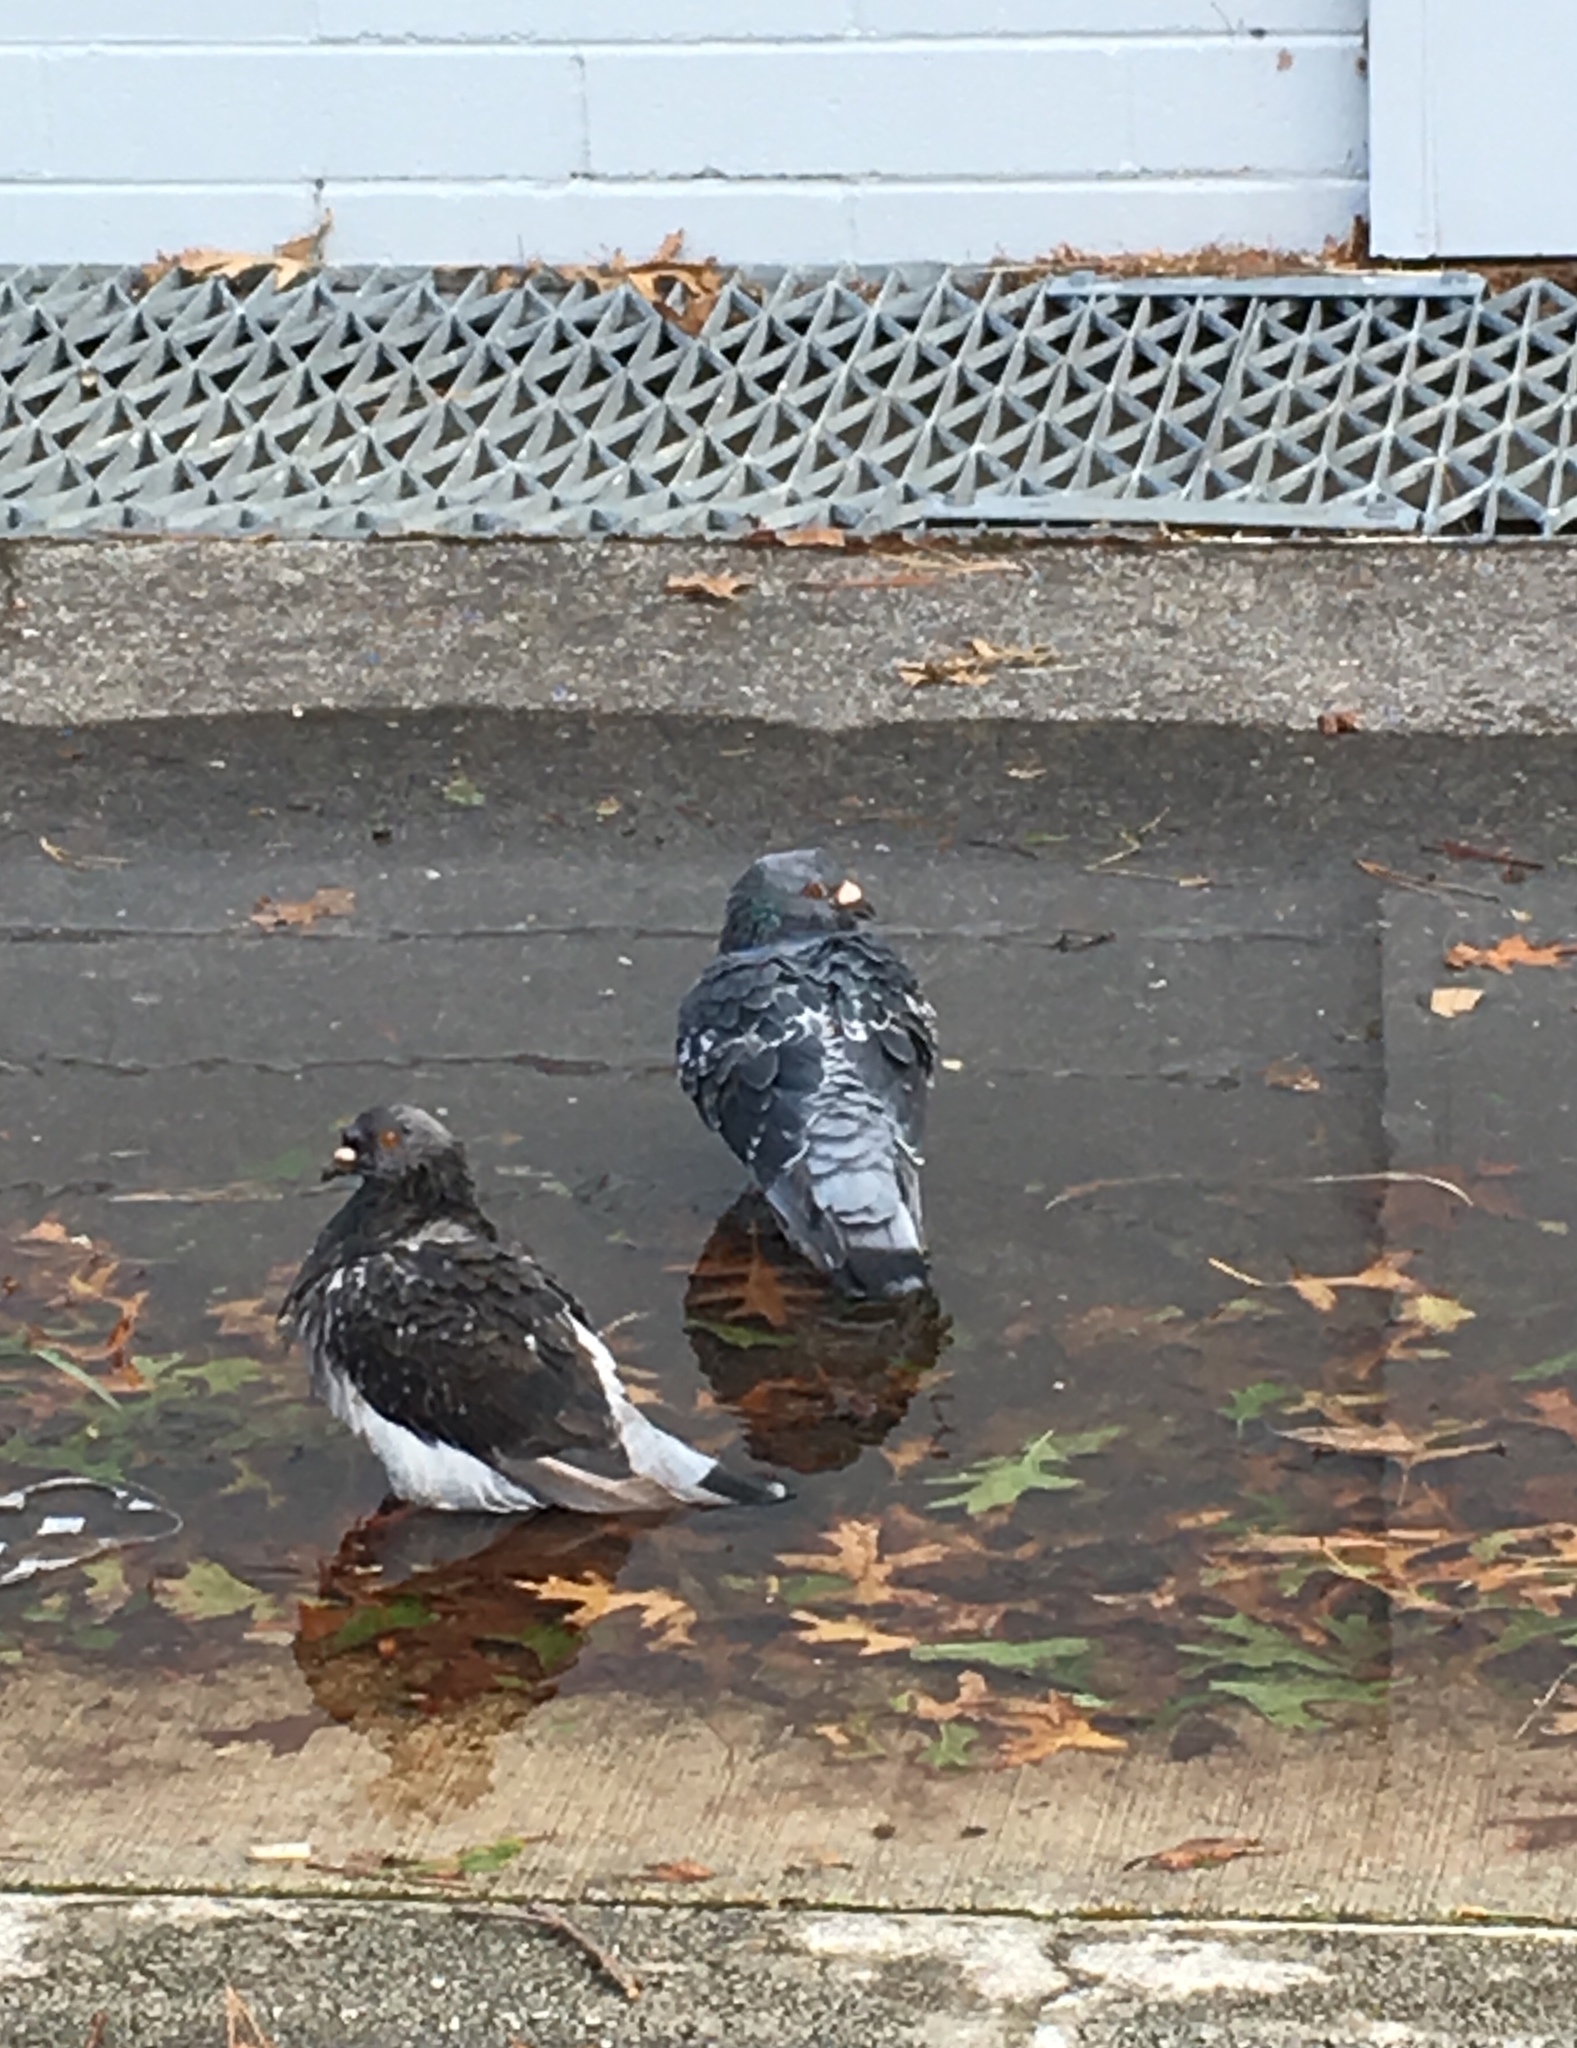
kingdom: Animalia
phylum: Chordata
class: Aves
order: Columbiformes
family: Columbidae
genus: Columba
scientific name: Columba livia
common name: Rock pigeon
